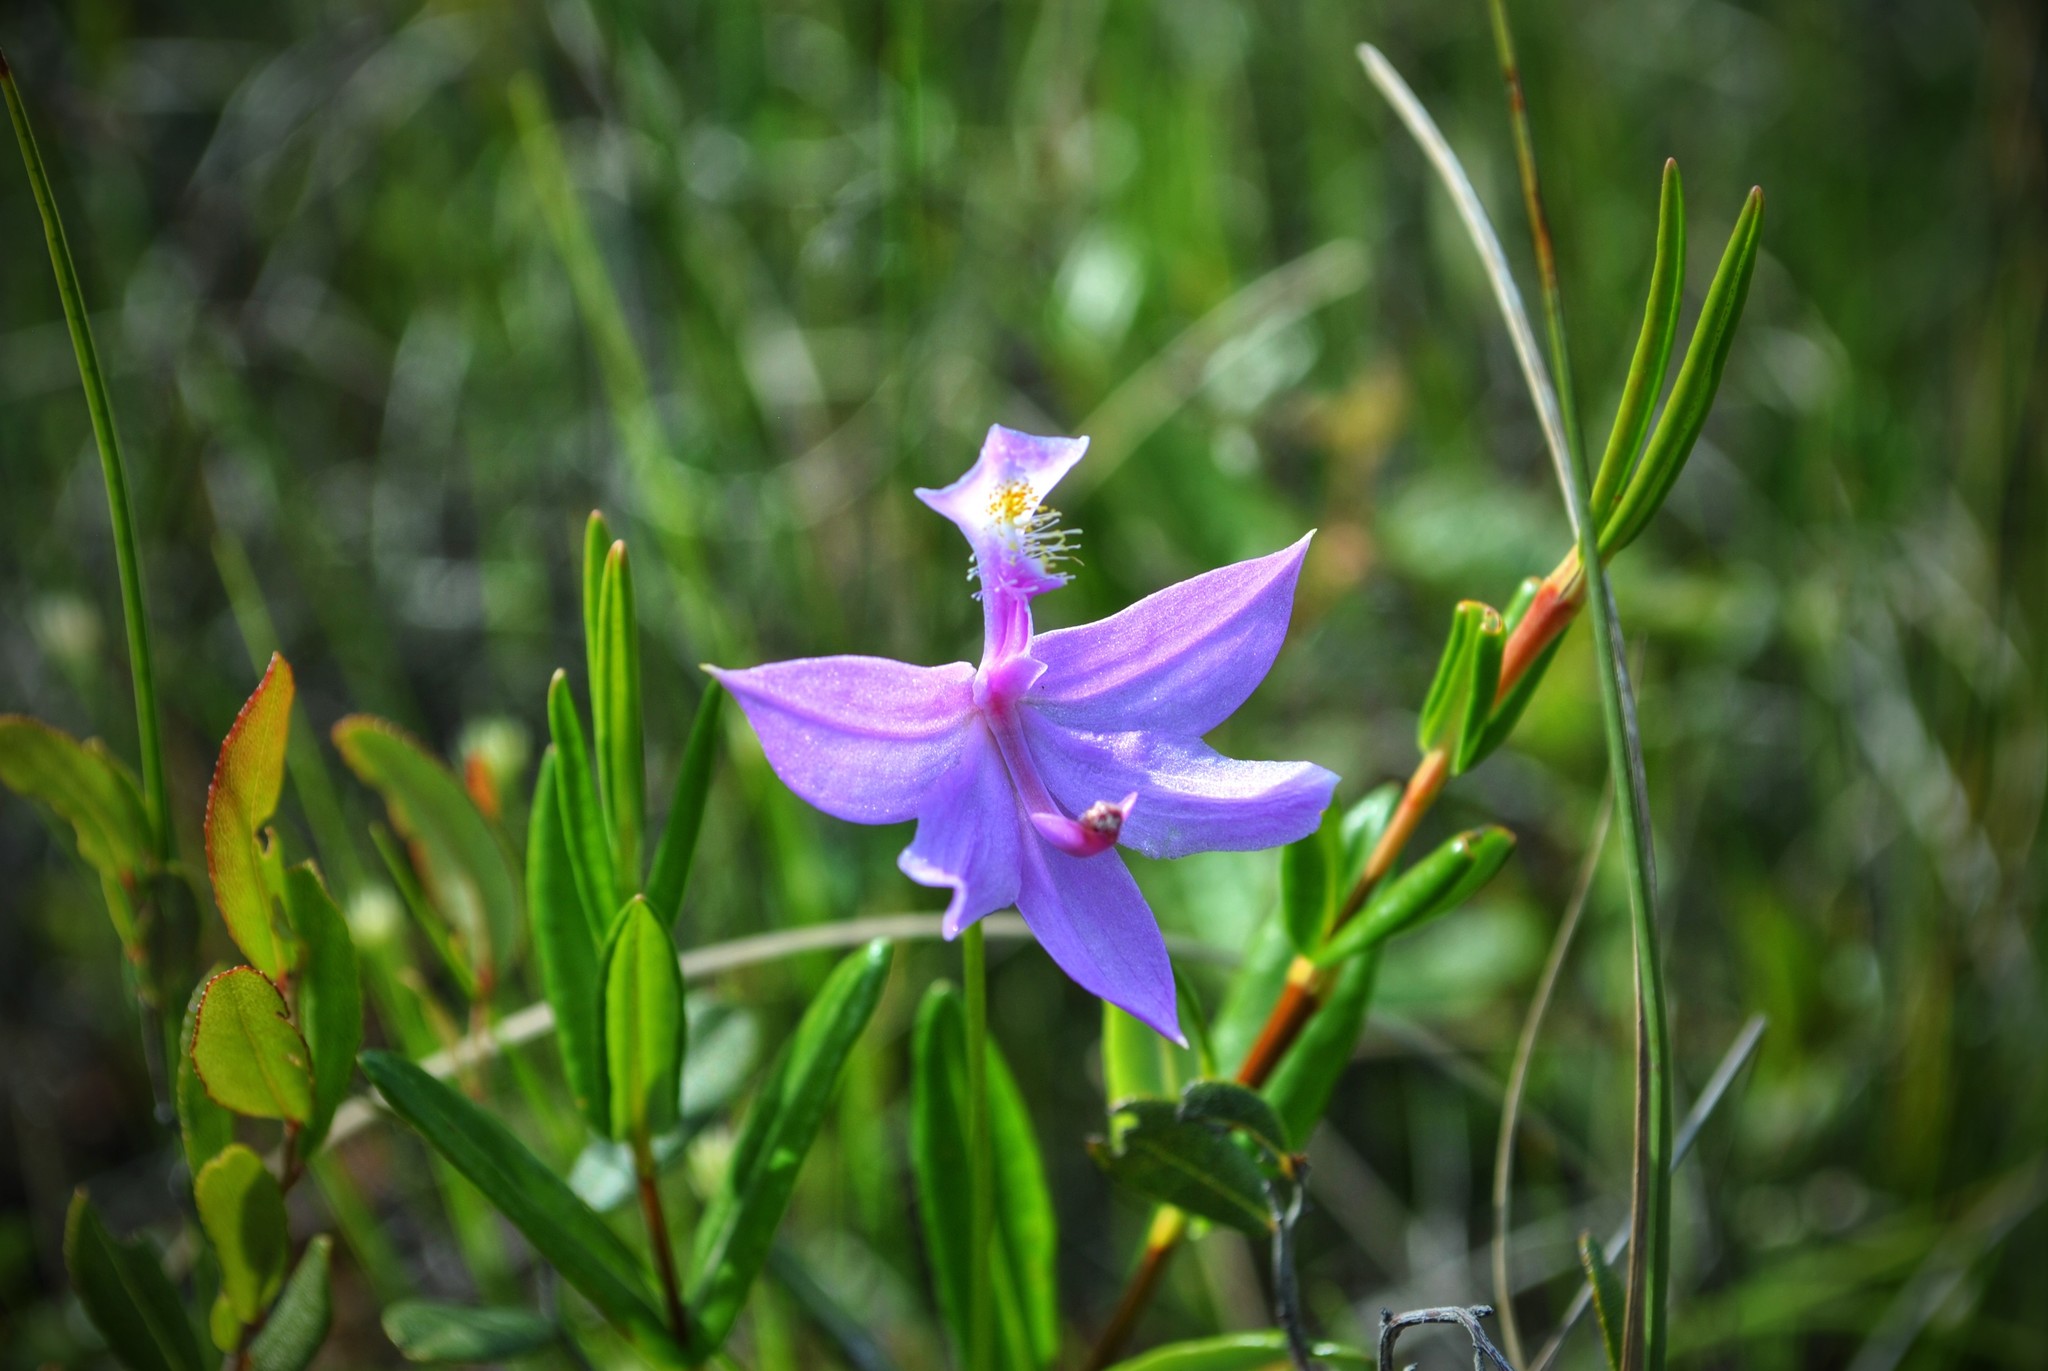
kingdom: Plantae
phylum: Tracheophyta
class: Liliopsida
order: Asparagales
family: Orchidaceae
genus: Calopogon
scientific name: Calopogon tuberosus
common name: Grass-pink
